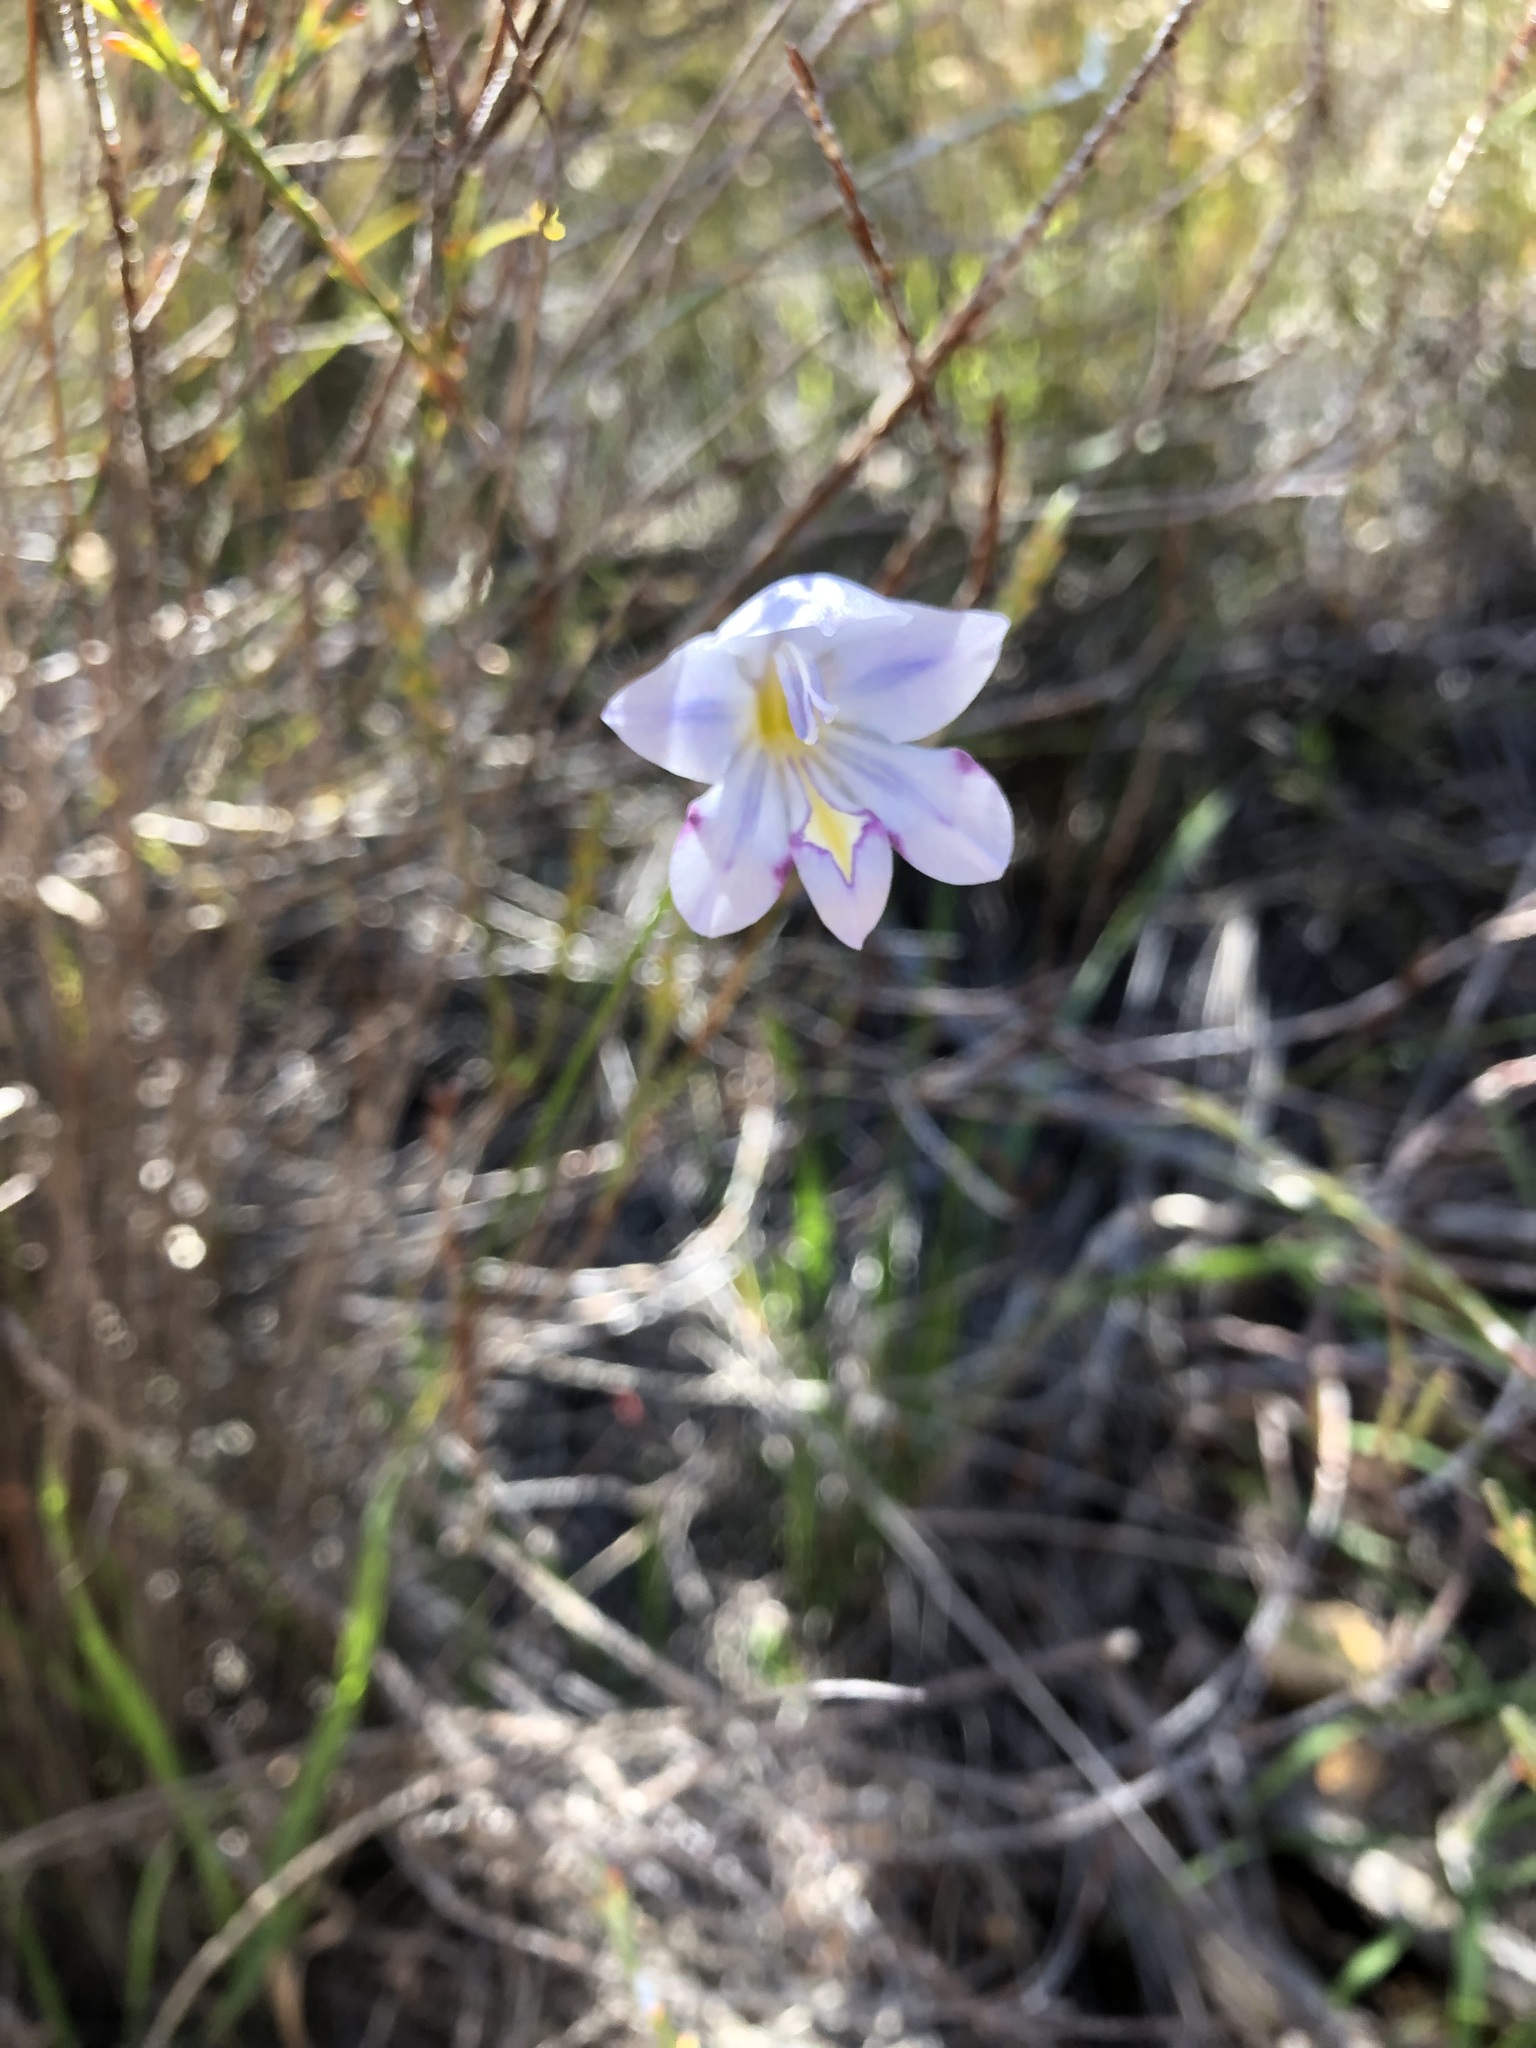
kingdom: Plantae
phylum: Tracheophyta
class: Liliopsida
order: Asparagales
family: Iridaceae
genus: Gladiolus
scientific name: Gladiolus inflatus
